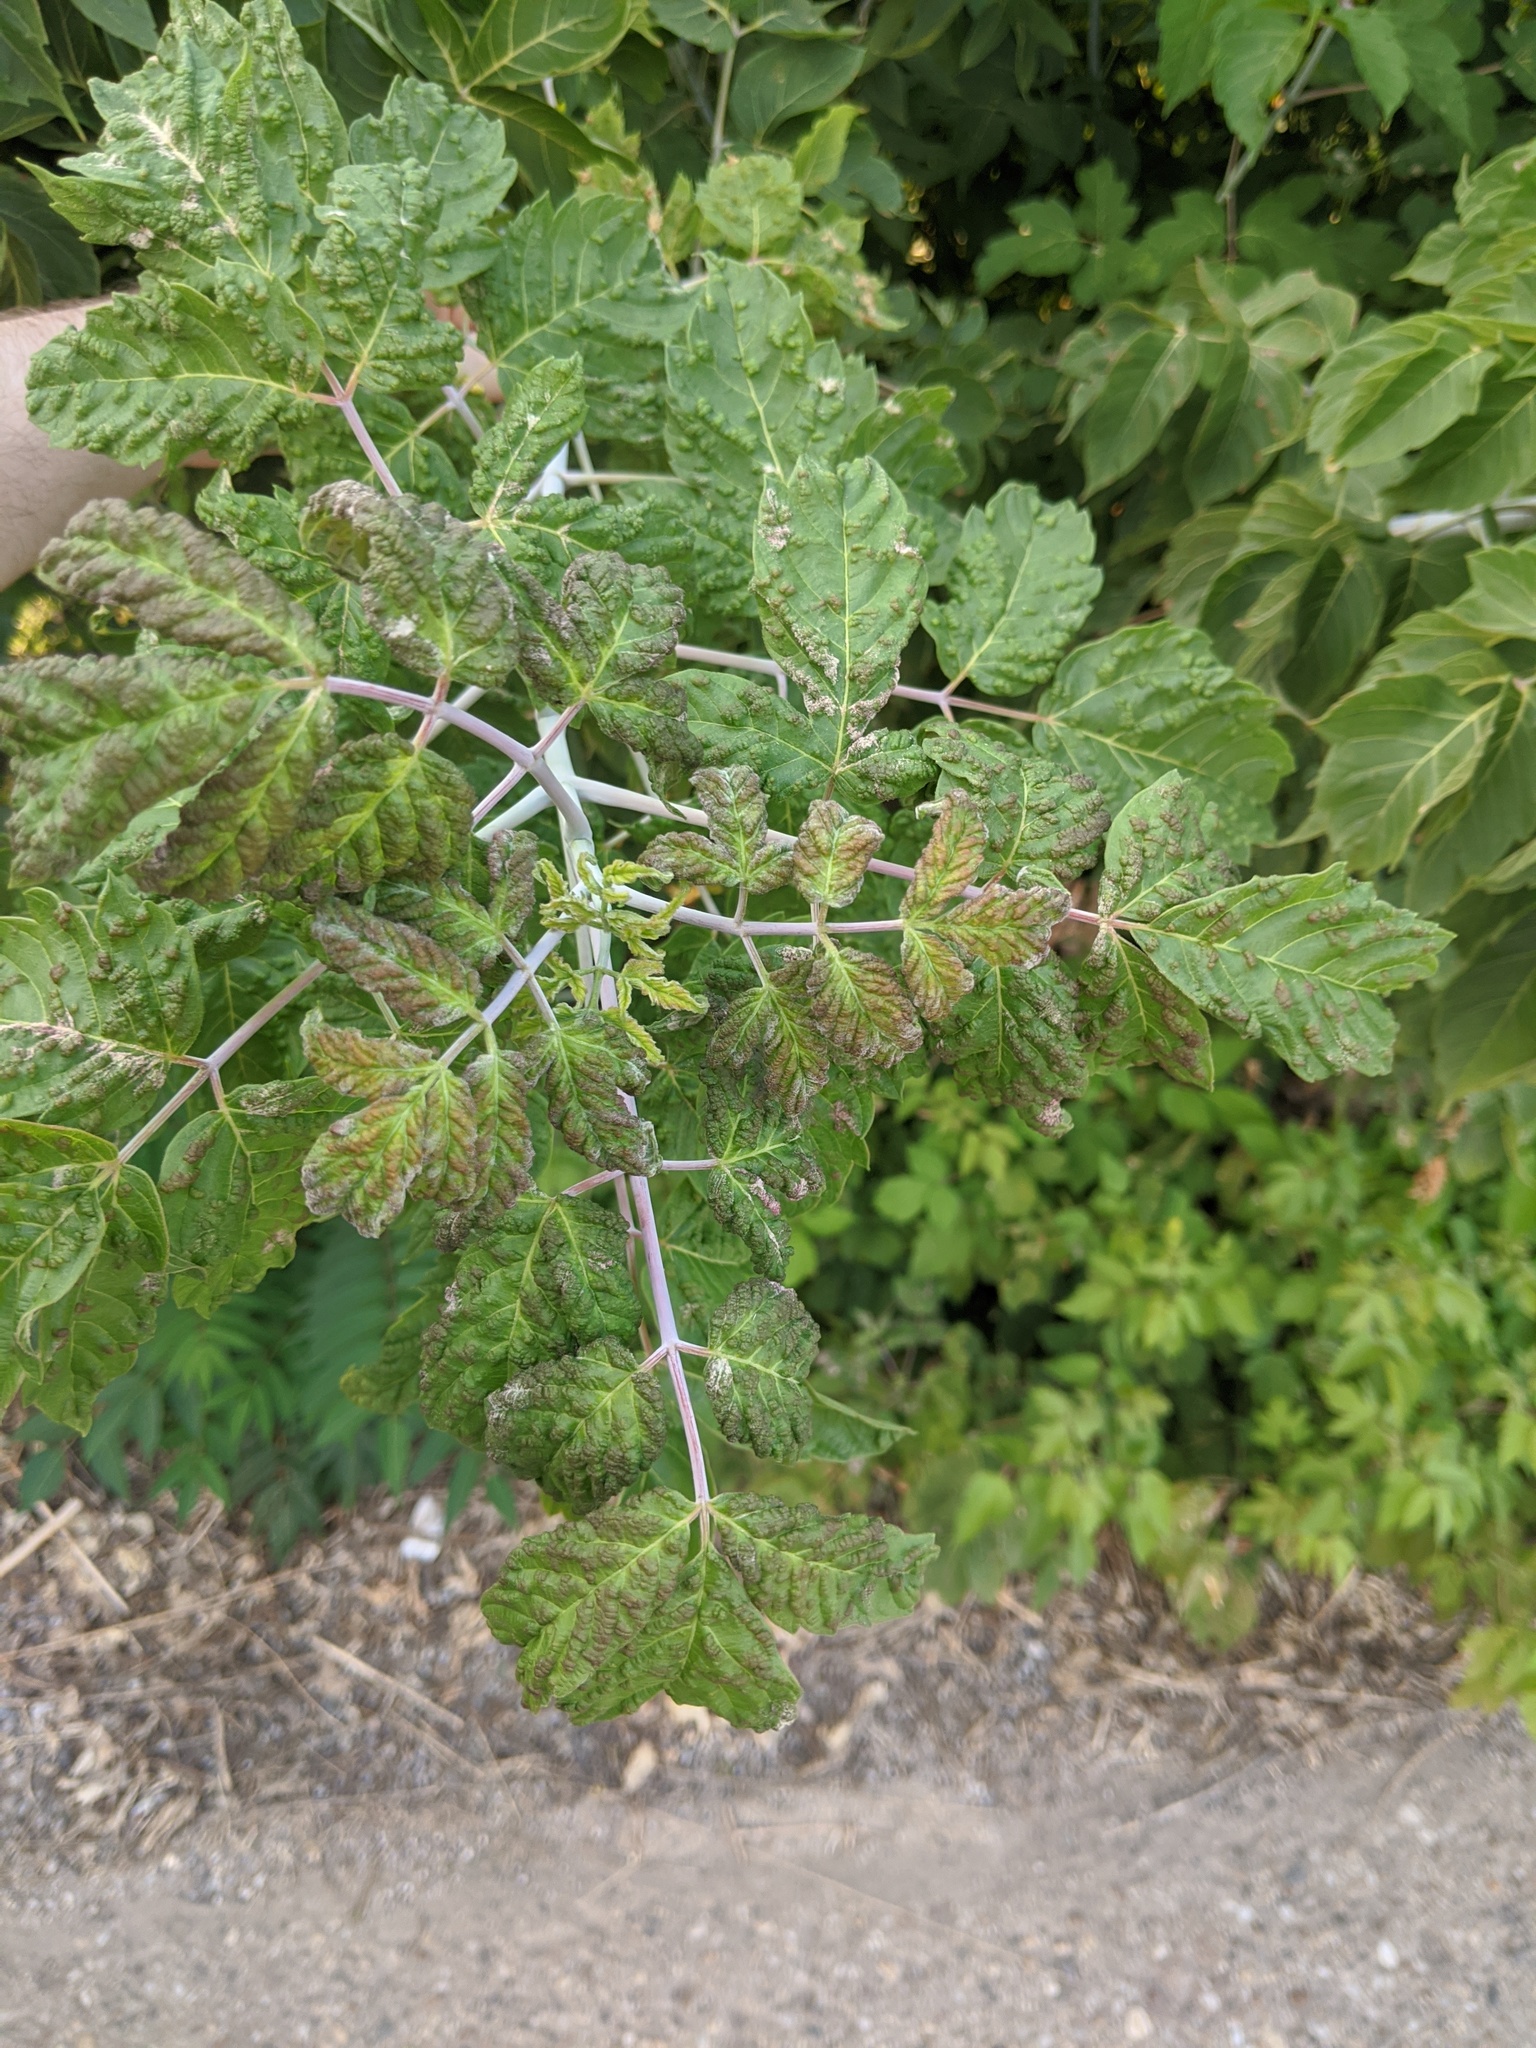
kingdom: Animalia
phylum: Arthropoda
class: Arachnida
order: Trombidiformes
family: Eriophyidae
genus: Aceria
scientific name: Aceria
